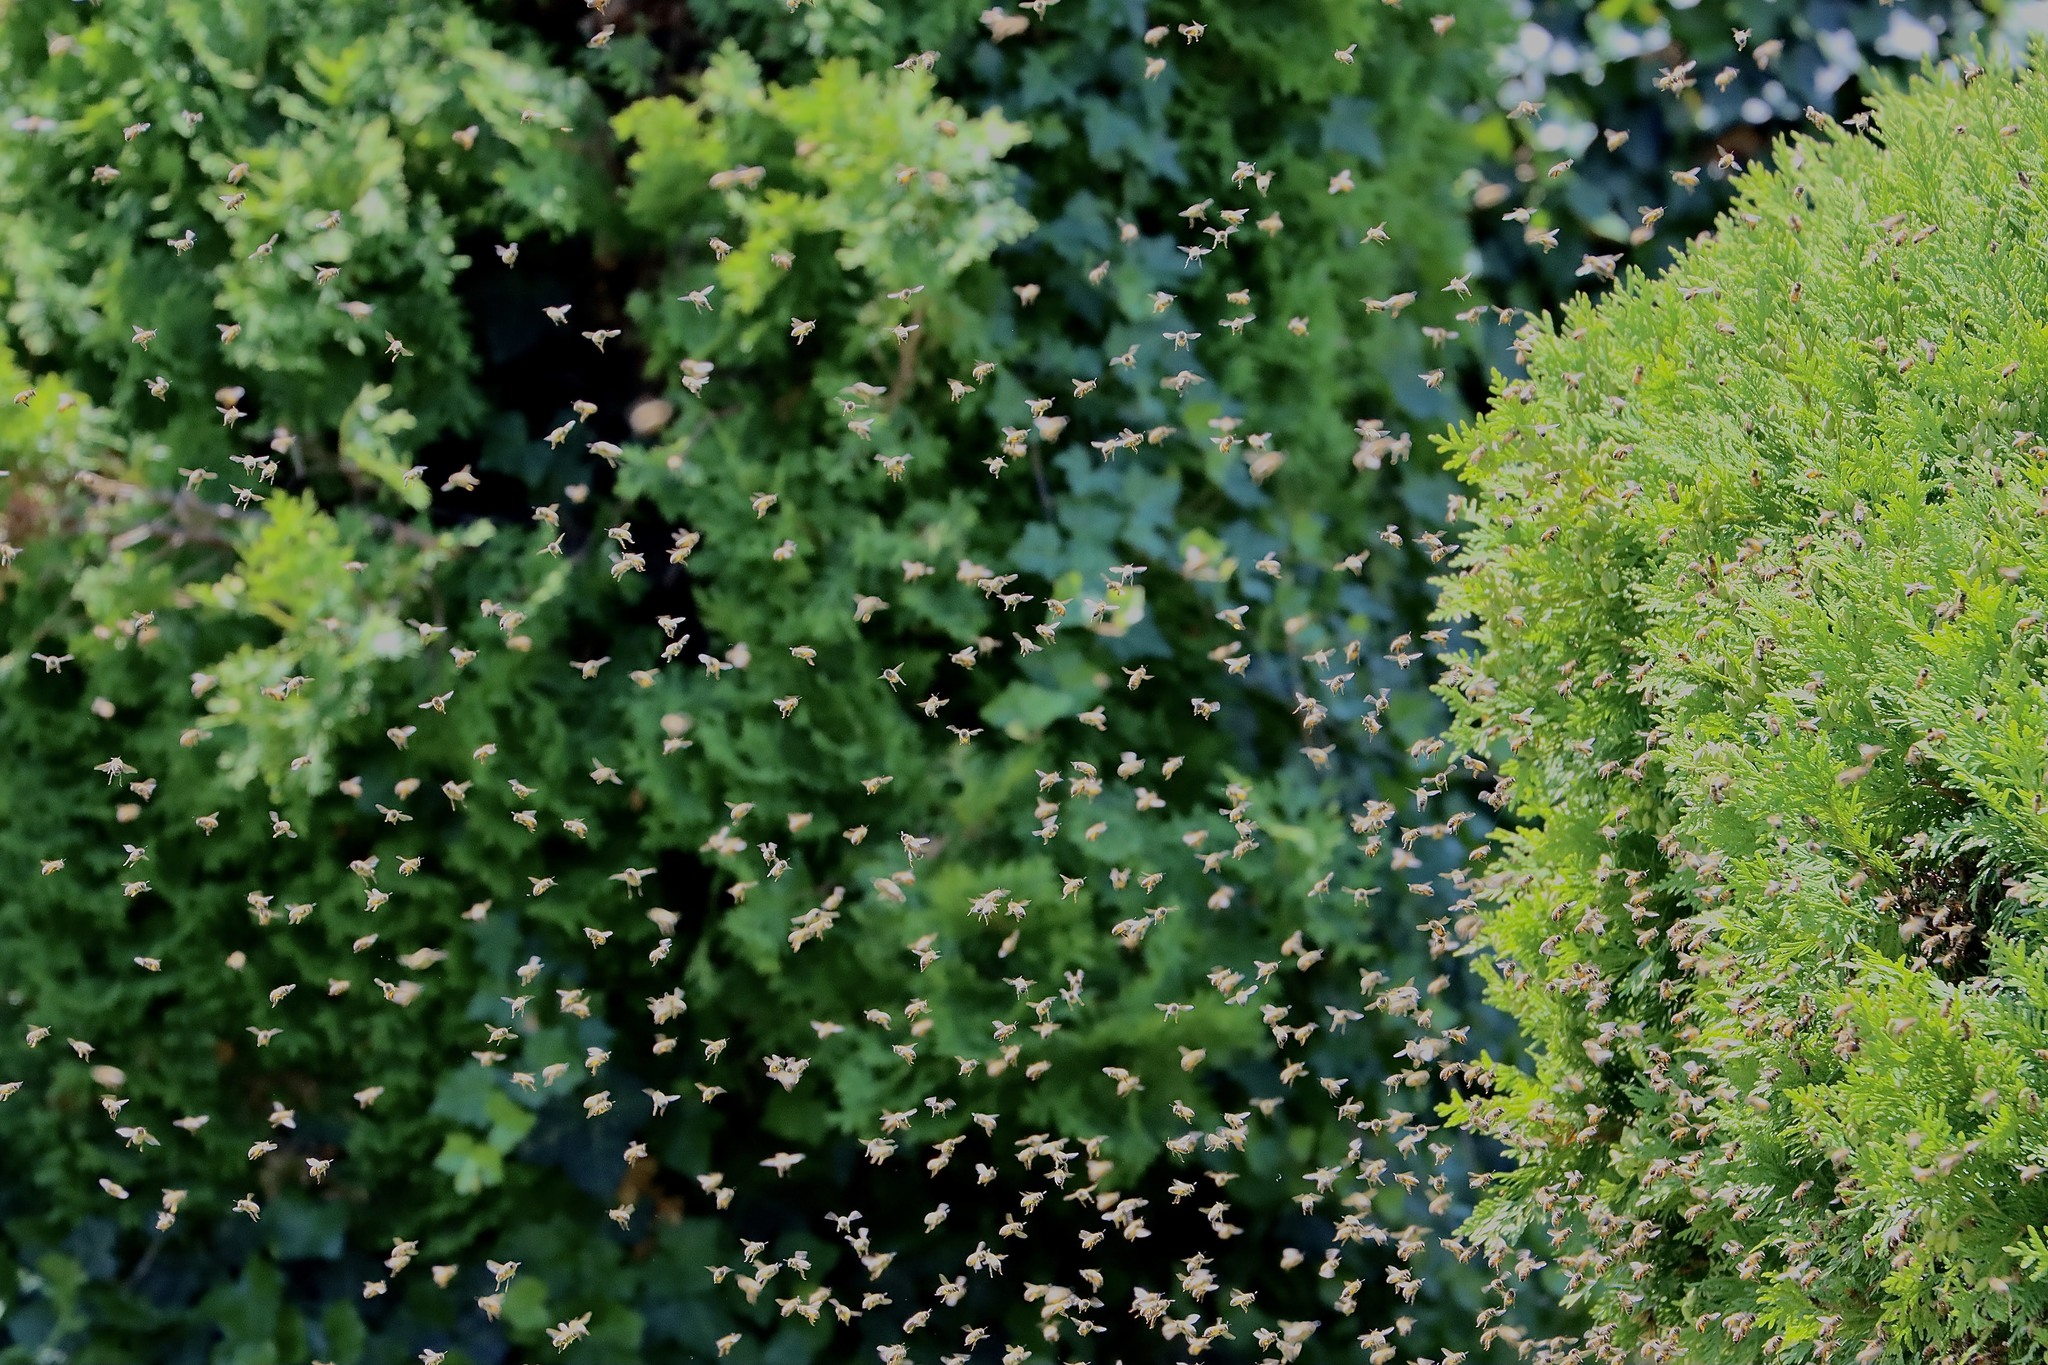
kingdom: Animalia
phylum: Arthropoda
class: Insecta
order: Hymenoptera
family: Apidae
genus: Apis
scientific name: Apis mellifera
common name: Honey bee
